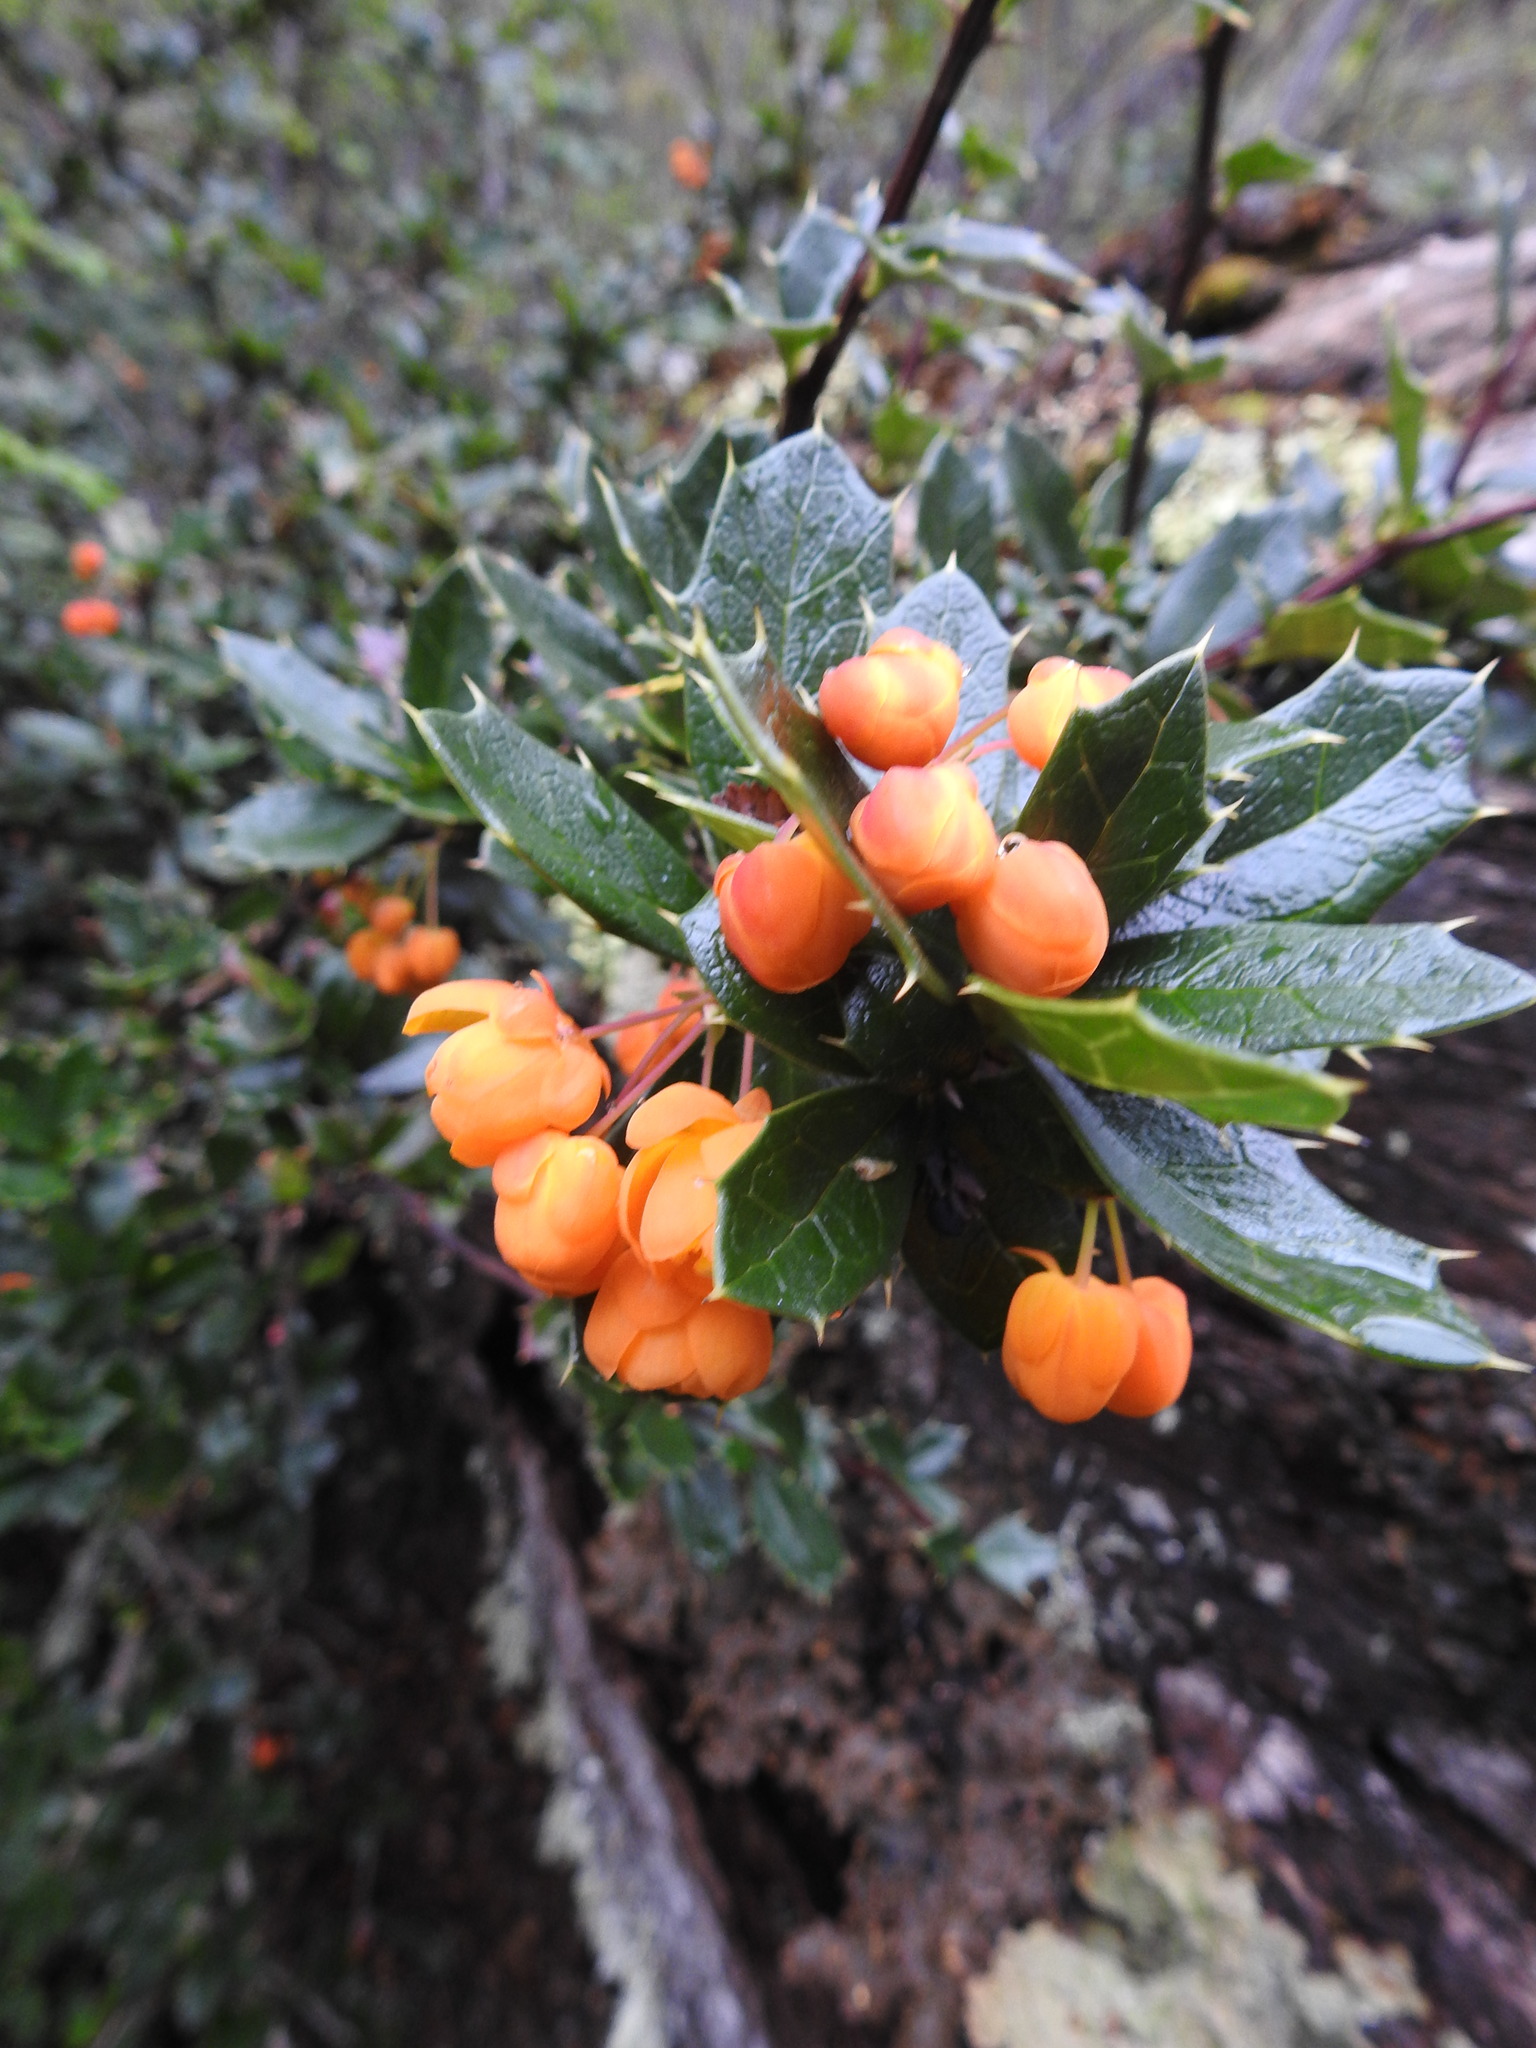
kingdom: Plantae
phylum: Tracheophyta
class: Magnoliopsida
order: Ranunculales
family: Berberidaceae
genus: Berberis
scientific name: Berberis ilicifolia
